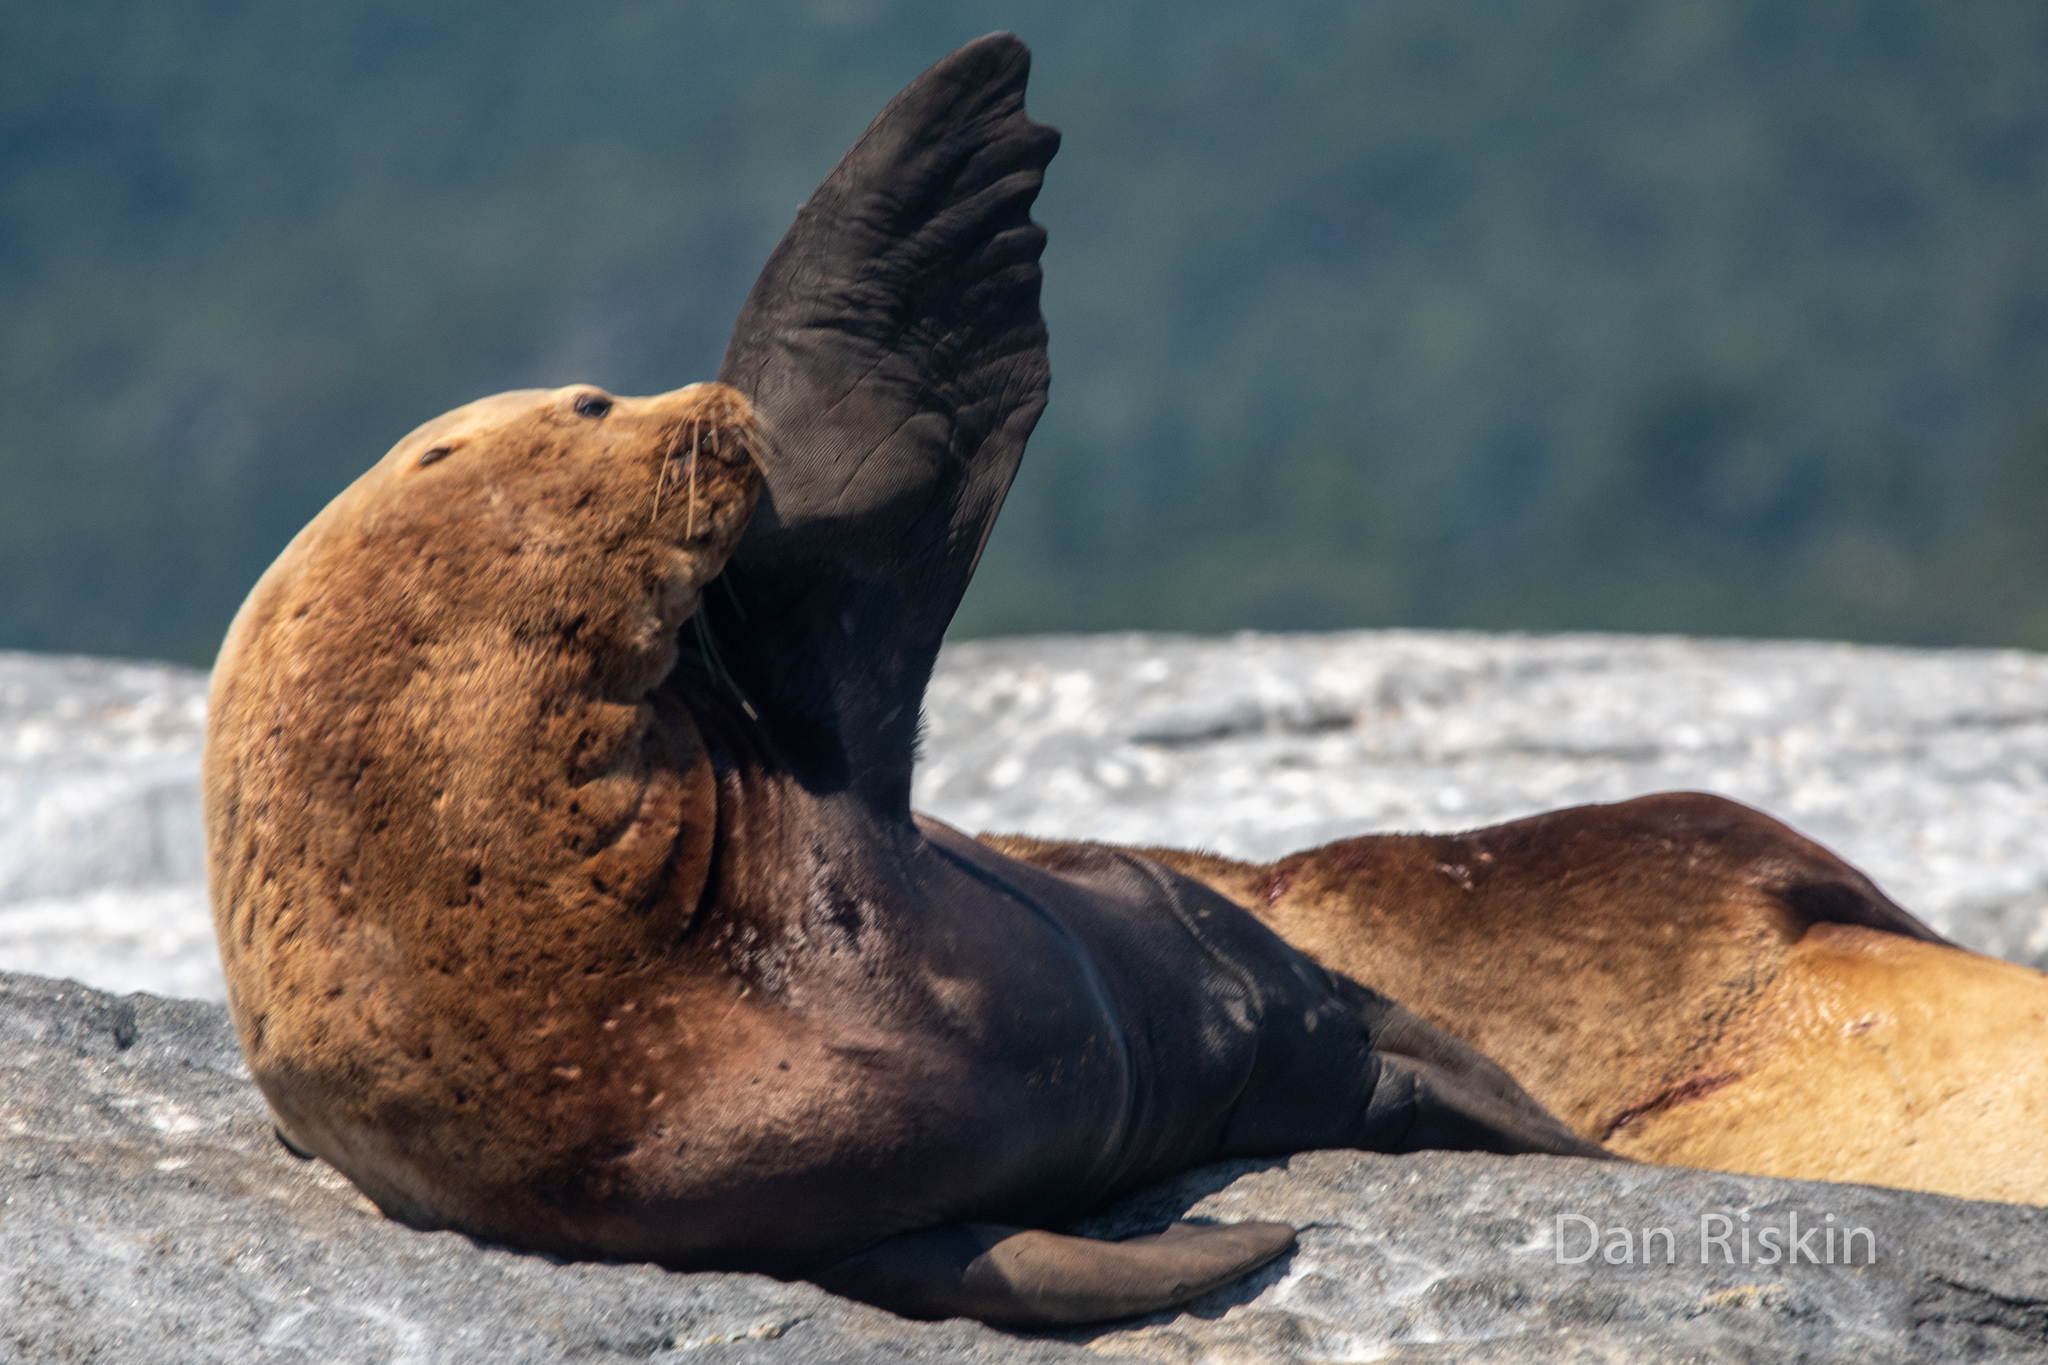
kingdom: Animalia
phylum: Chordata
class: Mammalia
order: Carnivora
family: Otariidae
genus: Eumetopias
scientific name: Eumetopias jubatus
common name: Steller sea lion
